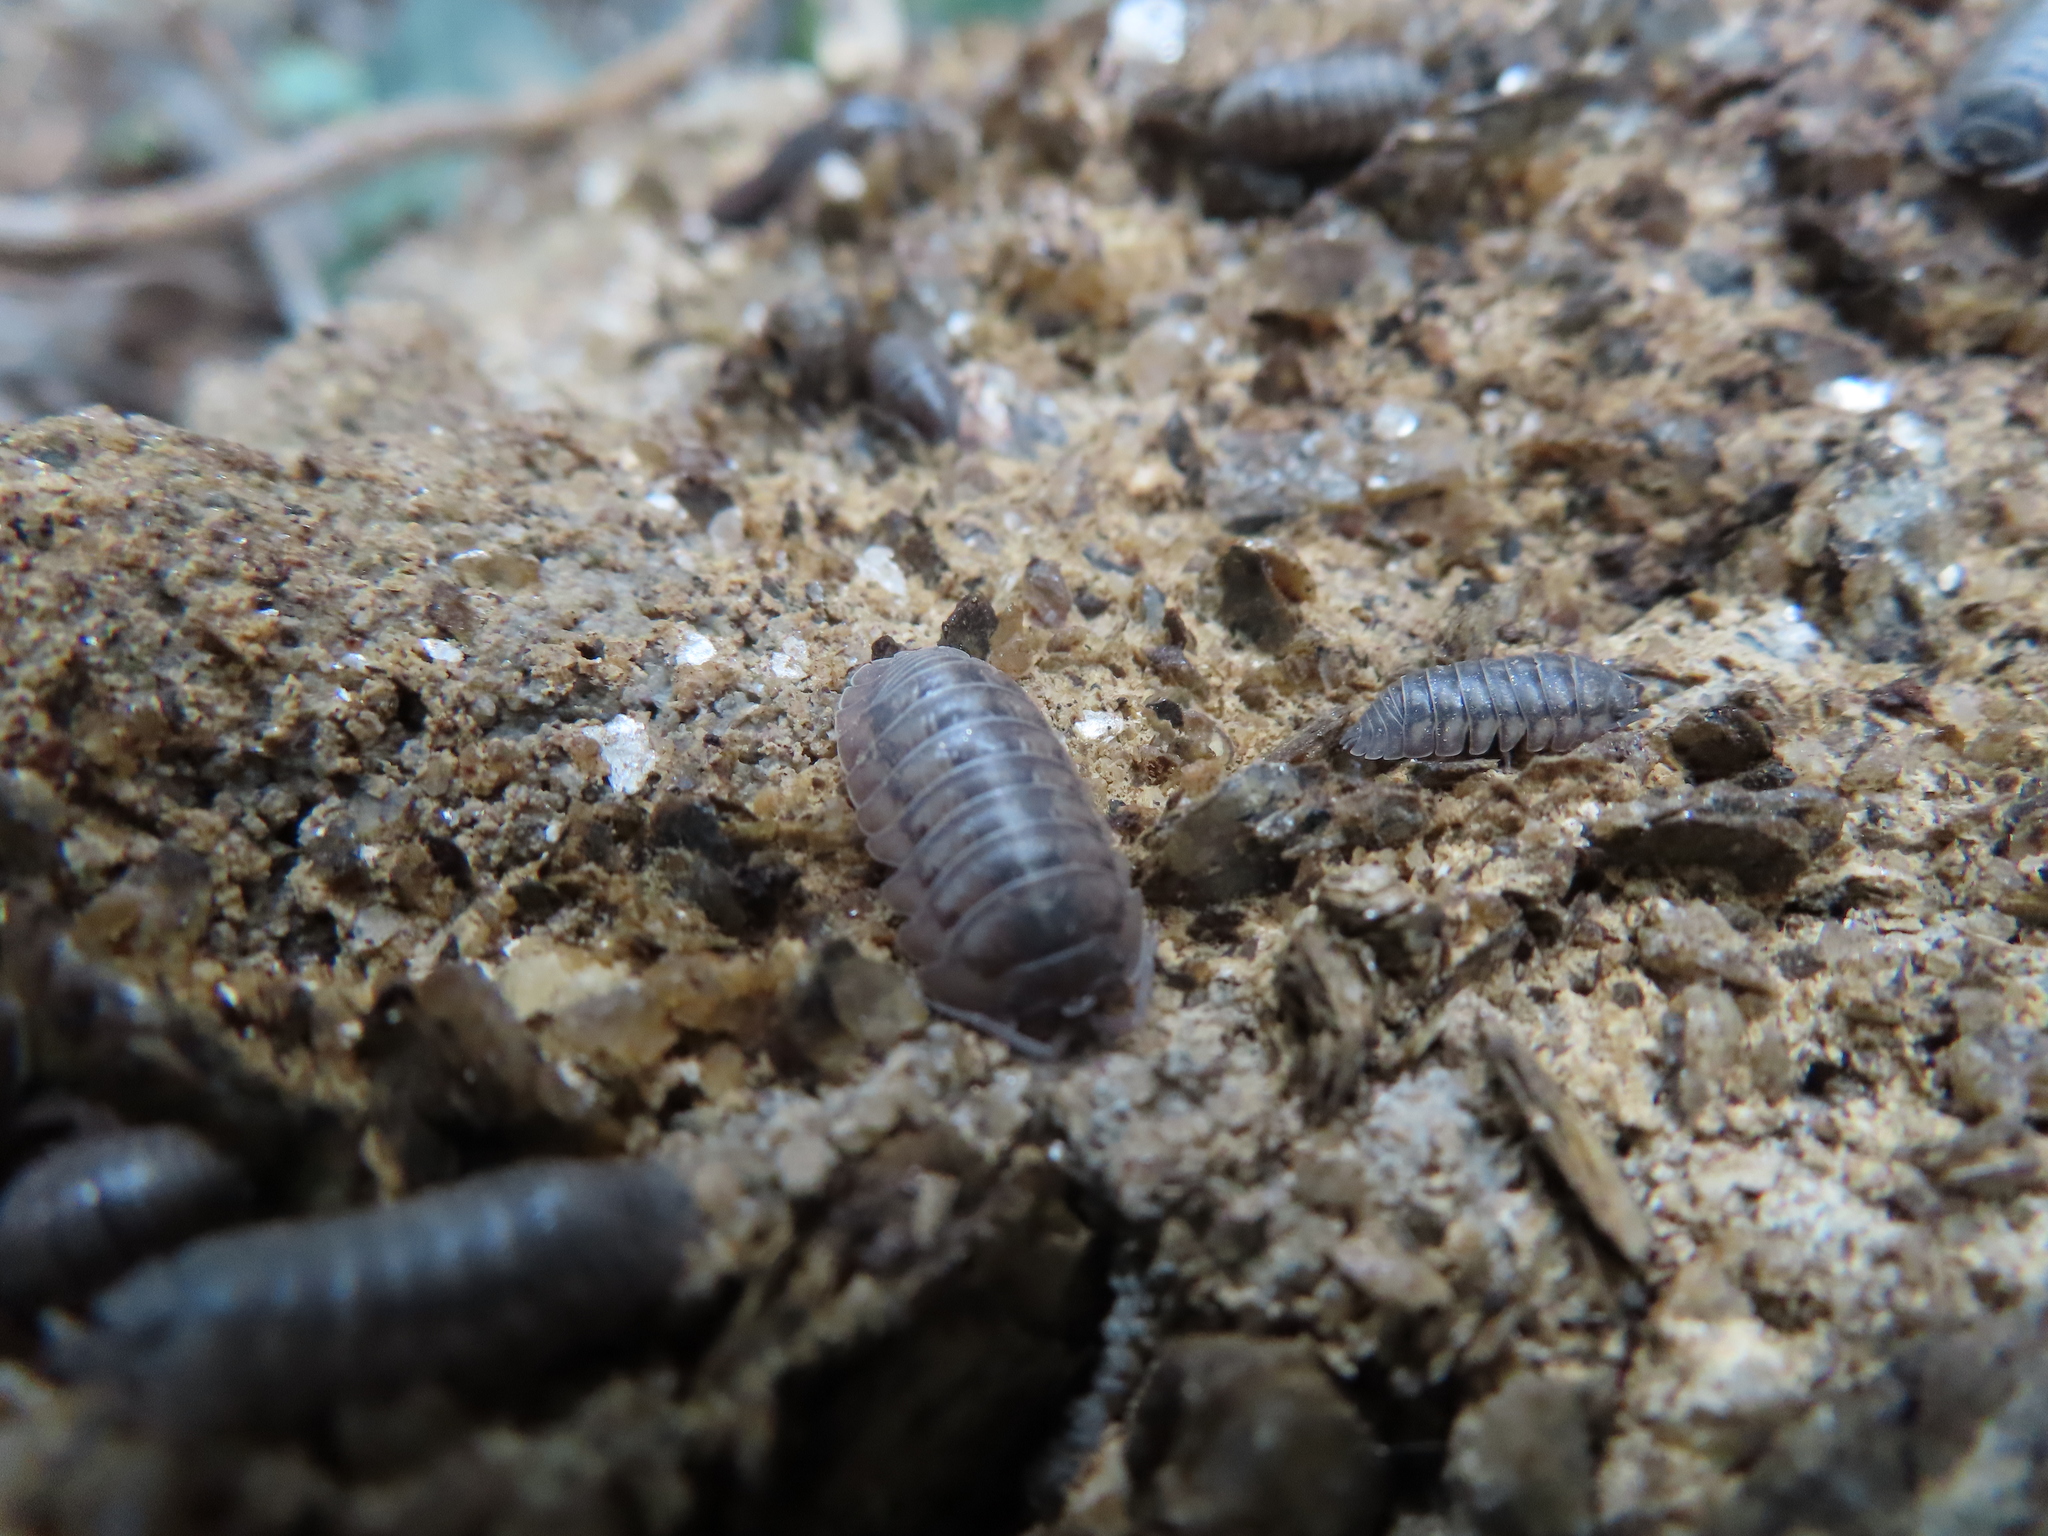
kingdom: Animalia
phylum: Arthropoda
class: Malacostraca
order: Isopoda
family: Armadillidiidae
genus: Armadillidium
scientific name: Armadillidium nasatum
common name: Isopod
